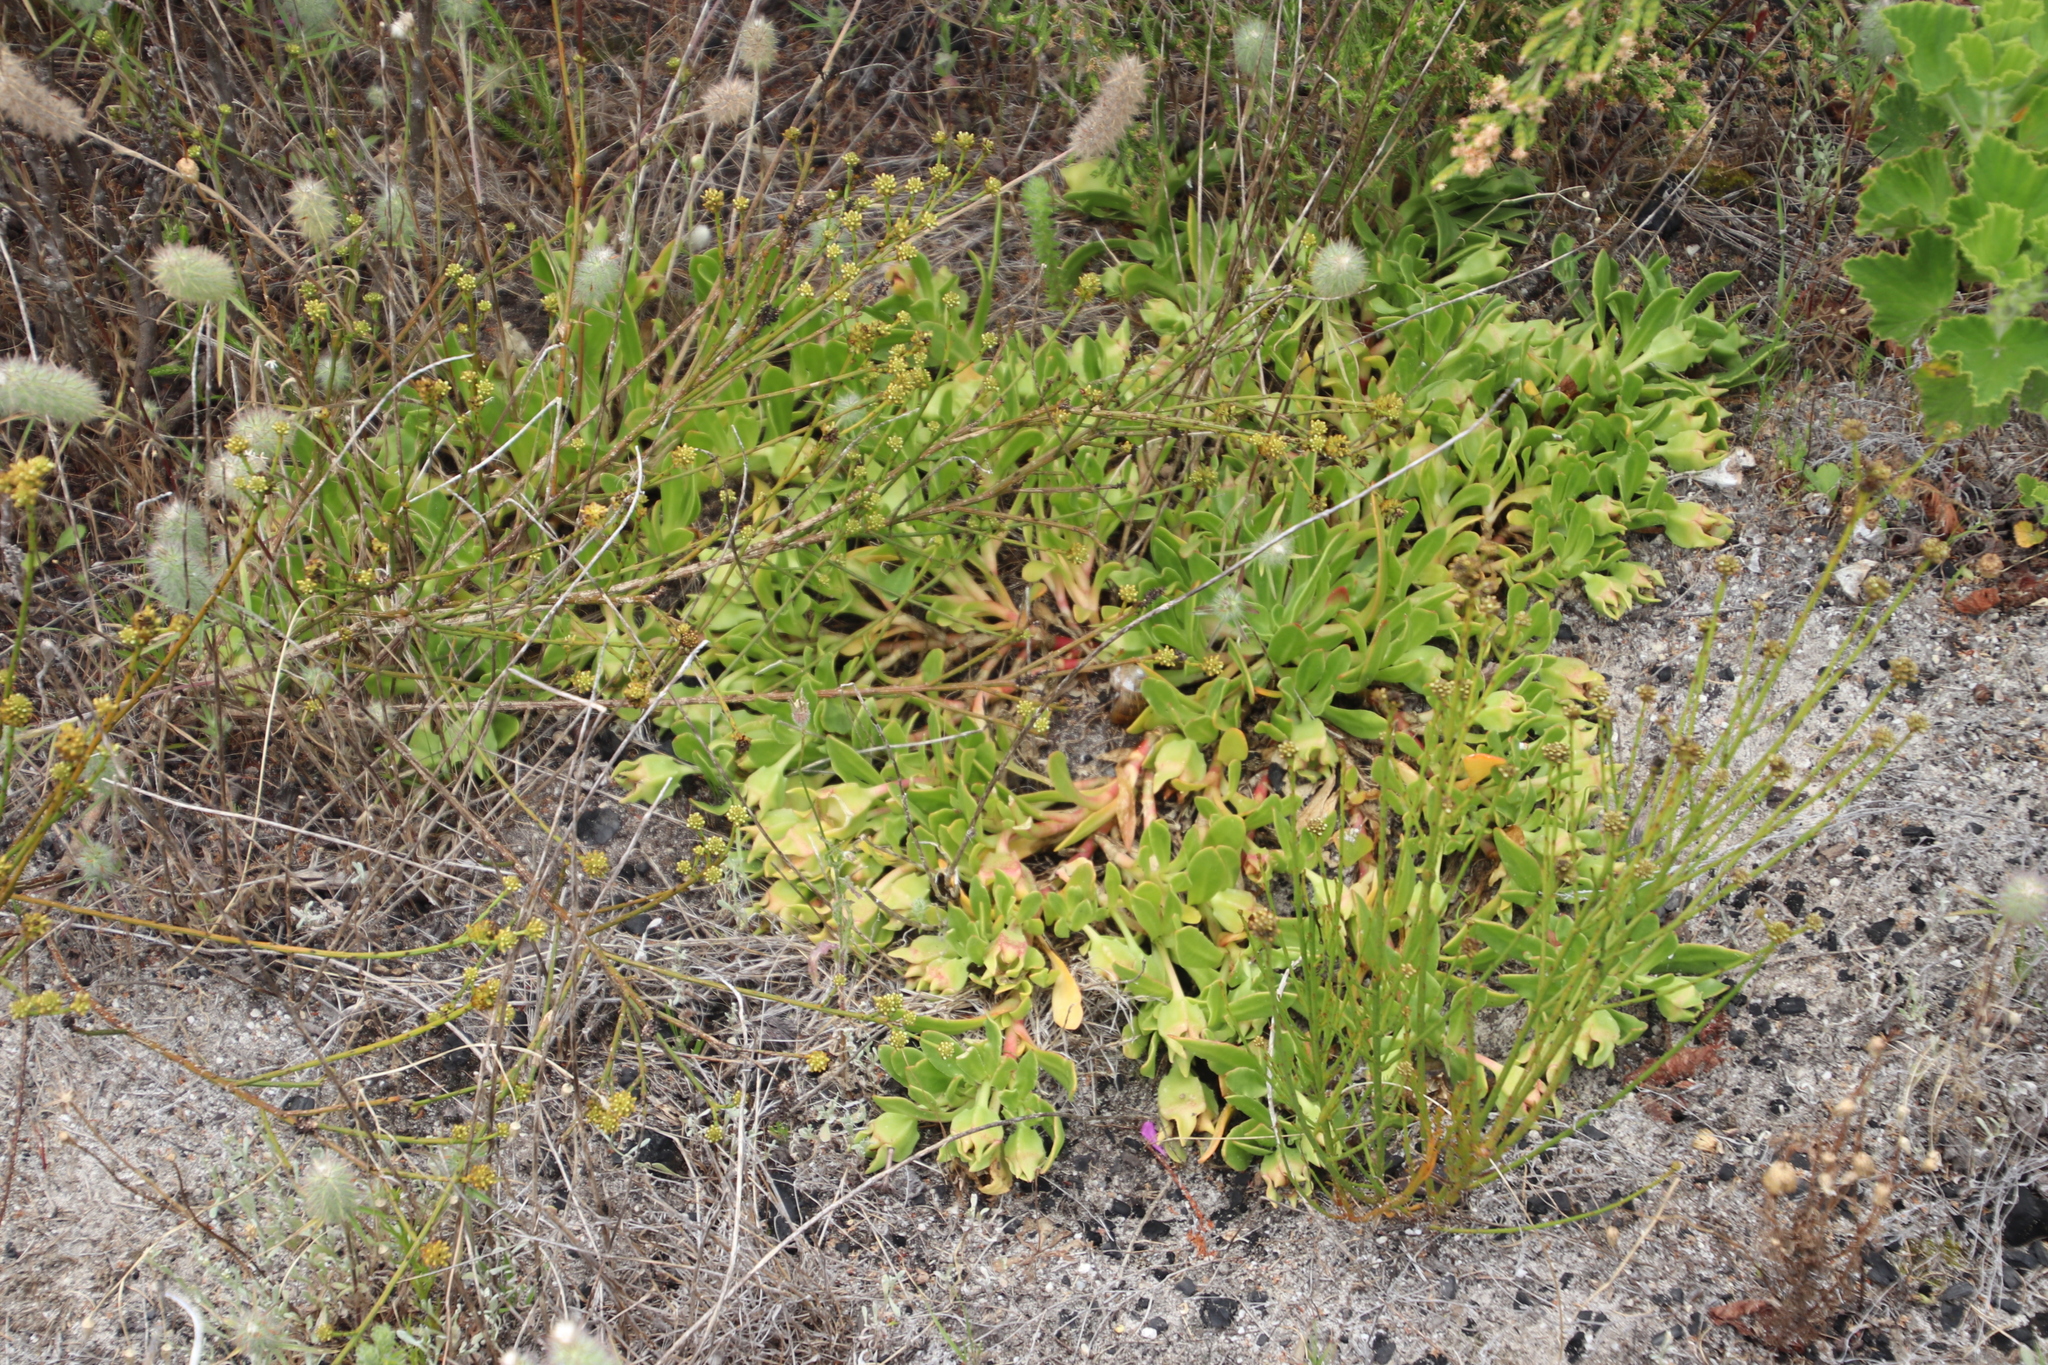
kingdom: Plantae
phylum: Tracheophyta
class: Magnoliopsida
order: Caryophyllales
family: Aizoaceae
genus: Skiatophytum
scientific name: Skiatophytum tripolium
